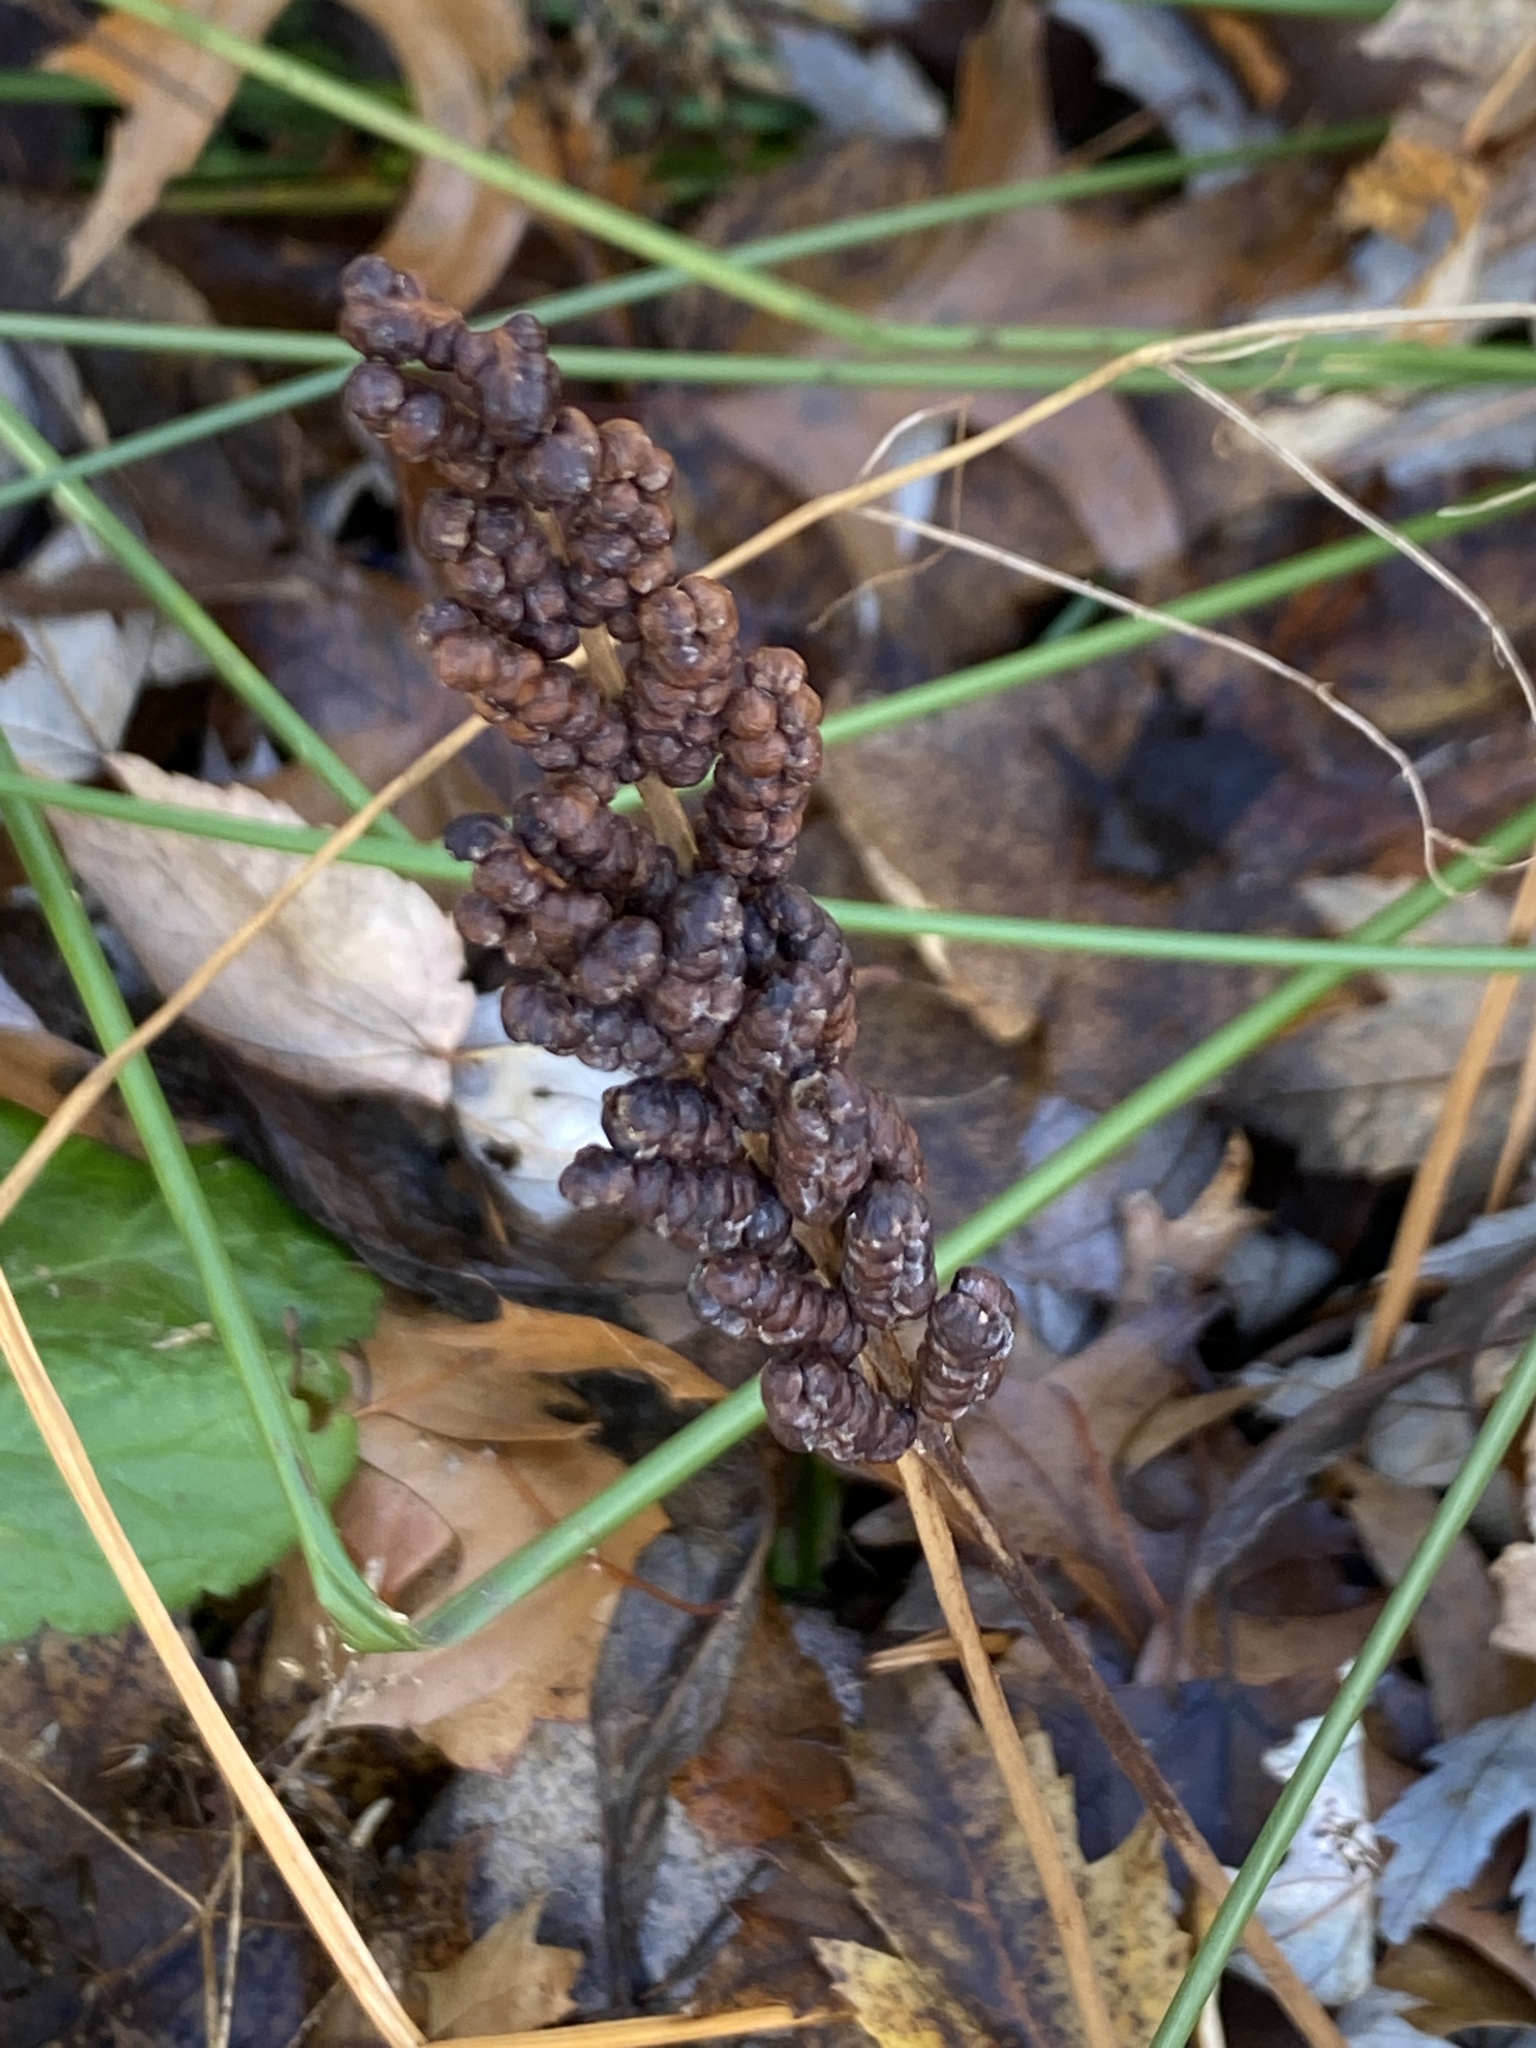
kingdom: Plantae
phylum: Tracheophyta
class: Polypodiopsida
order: Polypodiales
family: Onocleaceae
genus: Onoclea
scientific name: Onoclea sensibilis
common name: Sensitive fern
